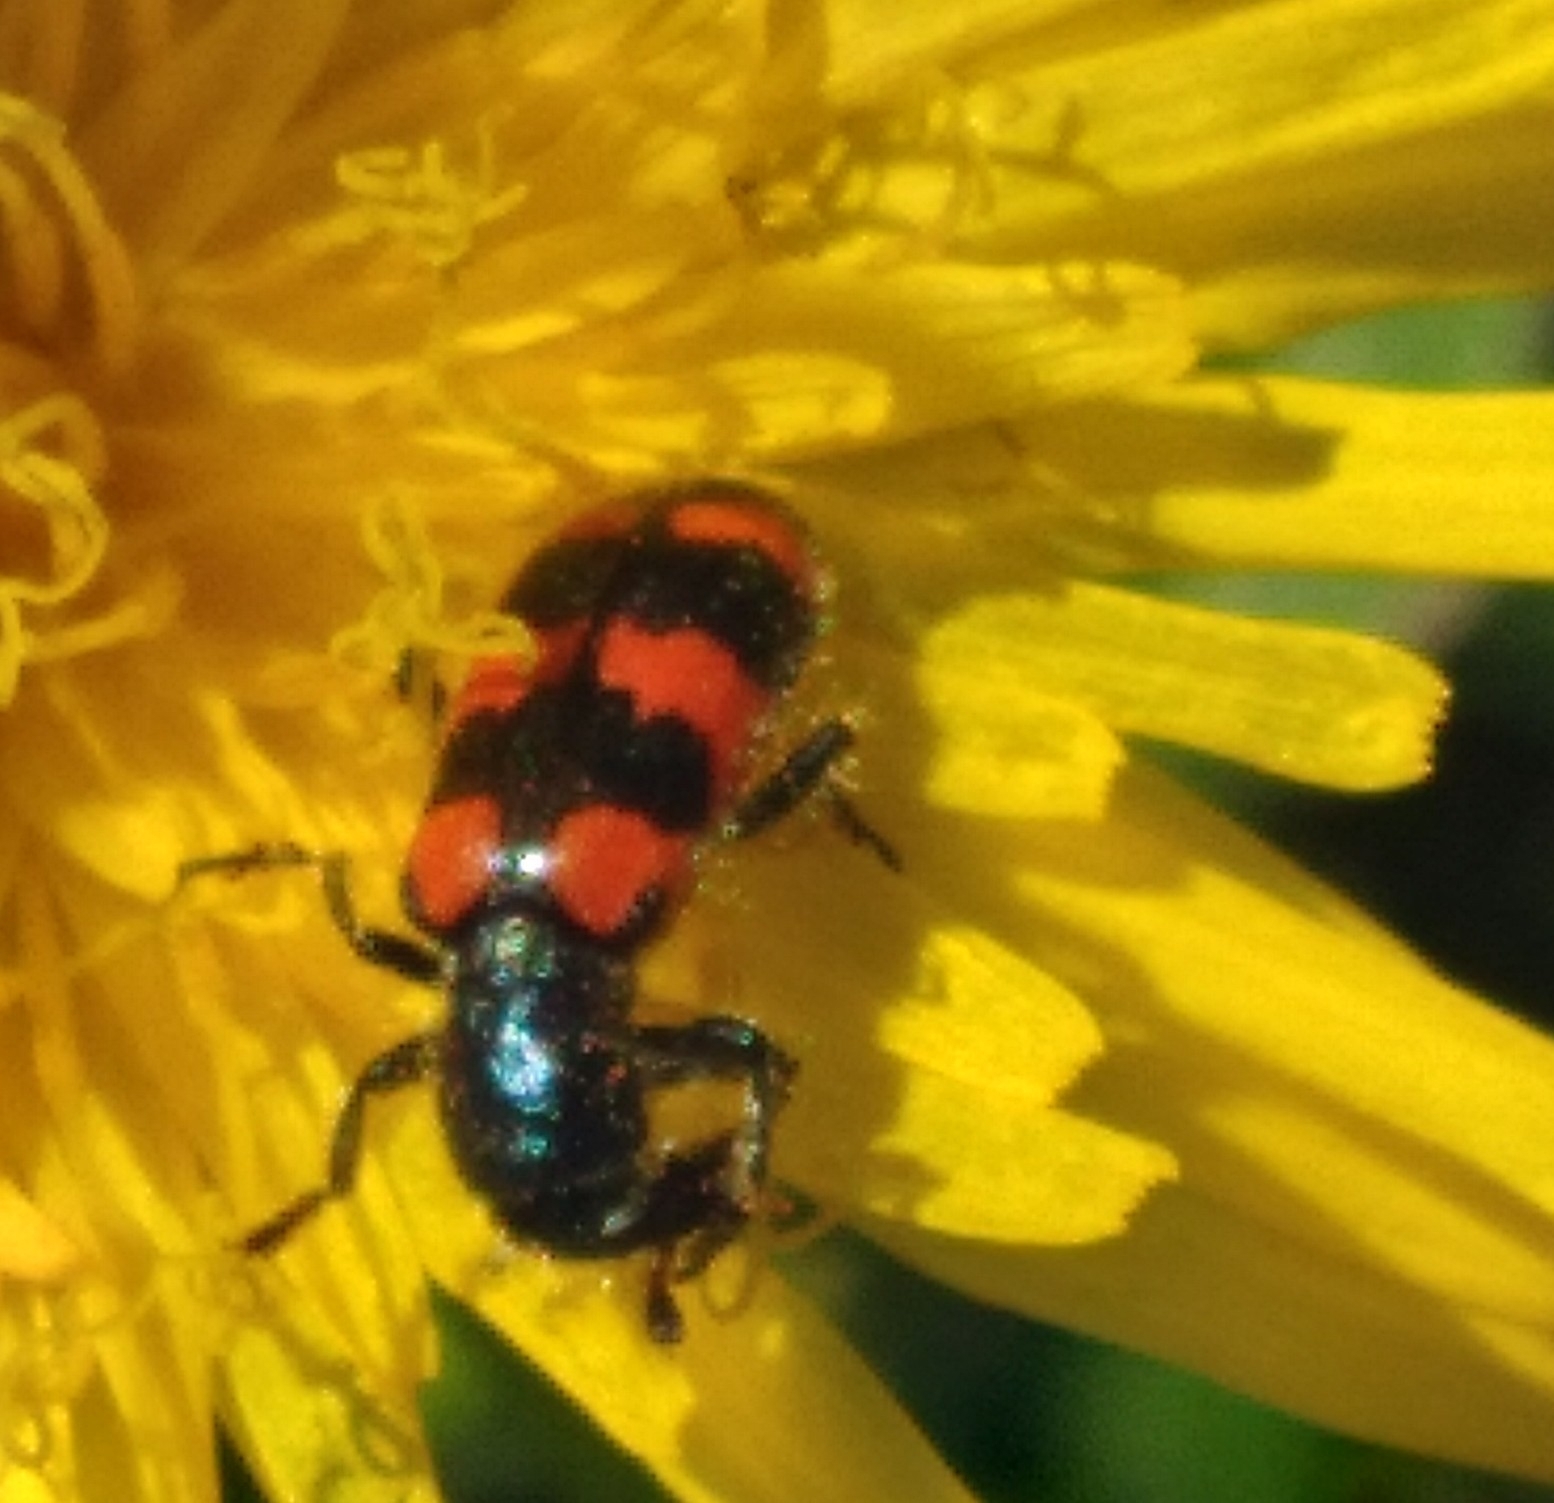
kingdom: Animalia
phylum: Arthropoda
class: Insecta
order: Coleoptera
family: Cleridae
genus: Trichodes
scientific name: Trichodes nutalli
